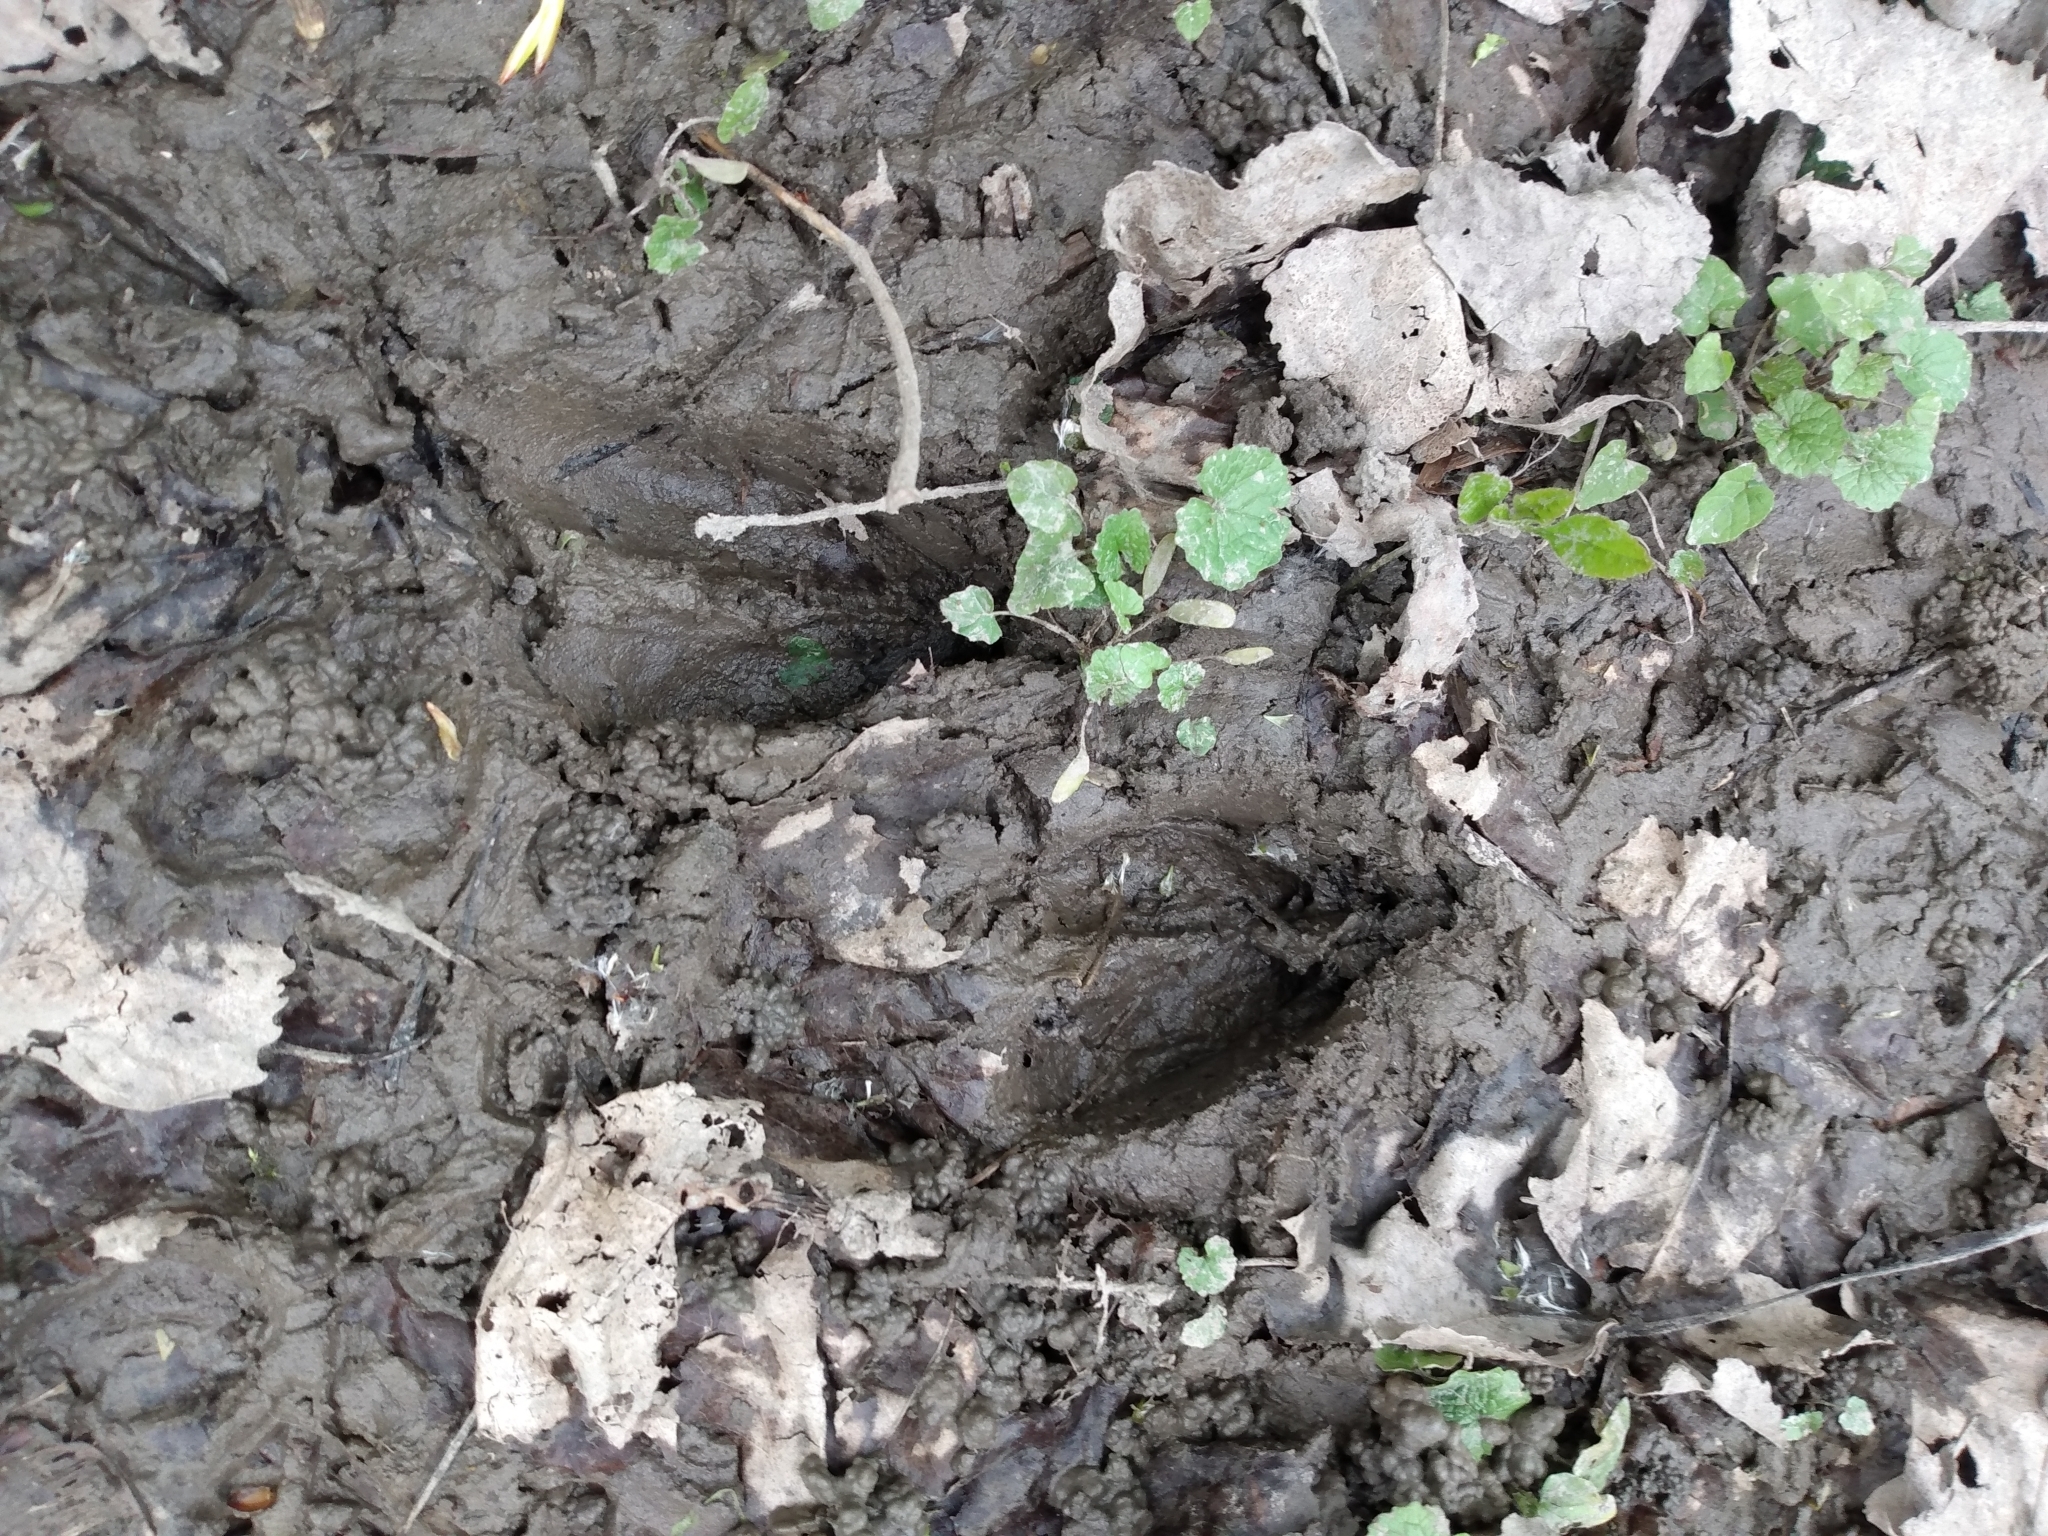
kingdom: Animalia
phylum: Chordata
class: Mammalia
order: Artiodactyla
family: Cervidae
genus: Odocoileus
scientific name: Odocoileus virginianus
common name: White-tailed deer
